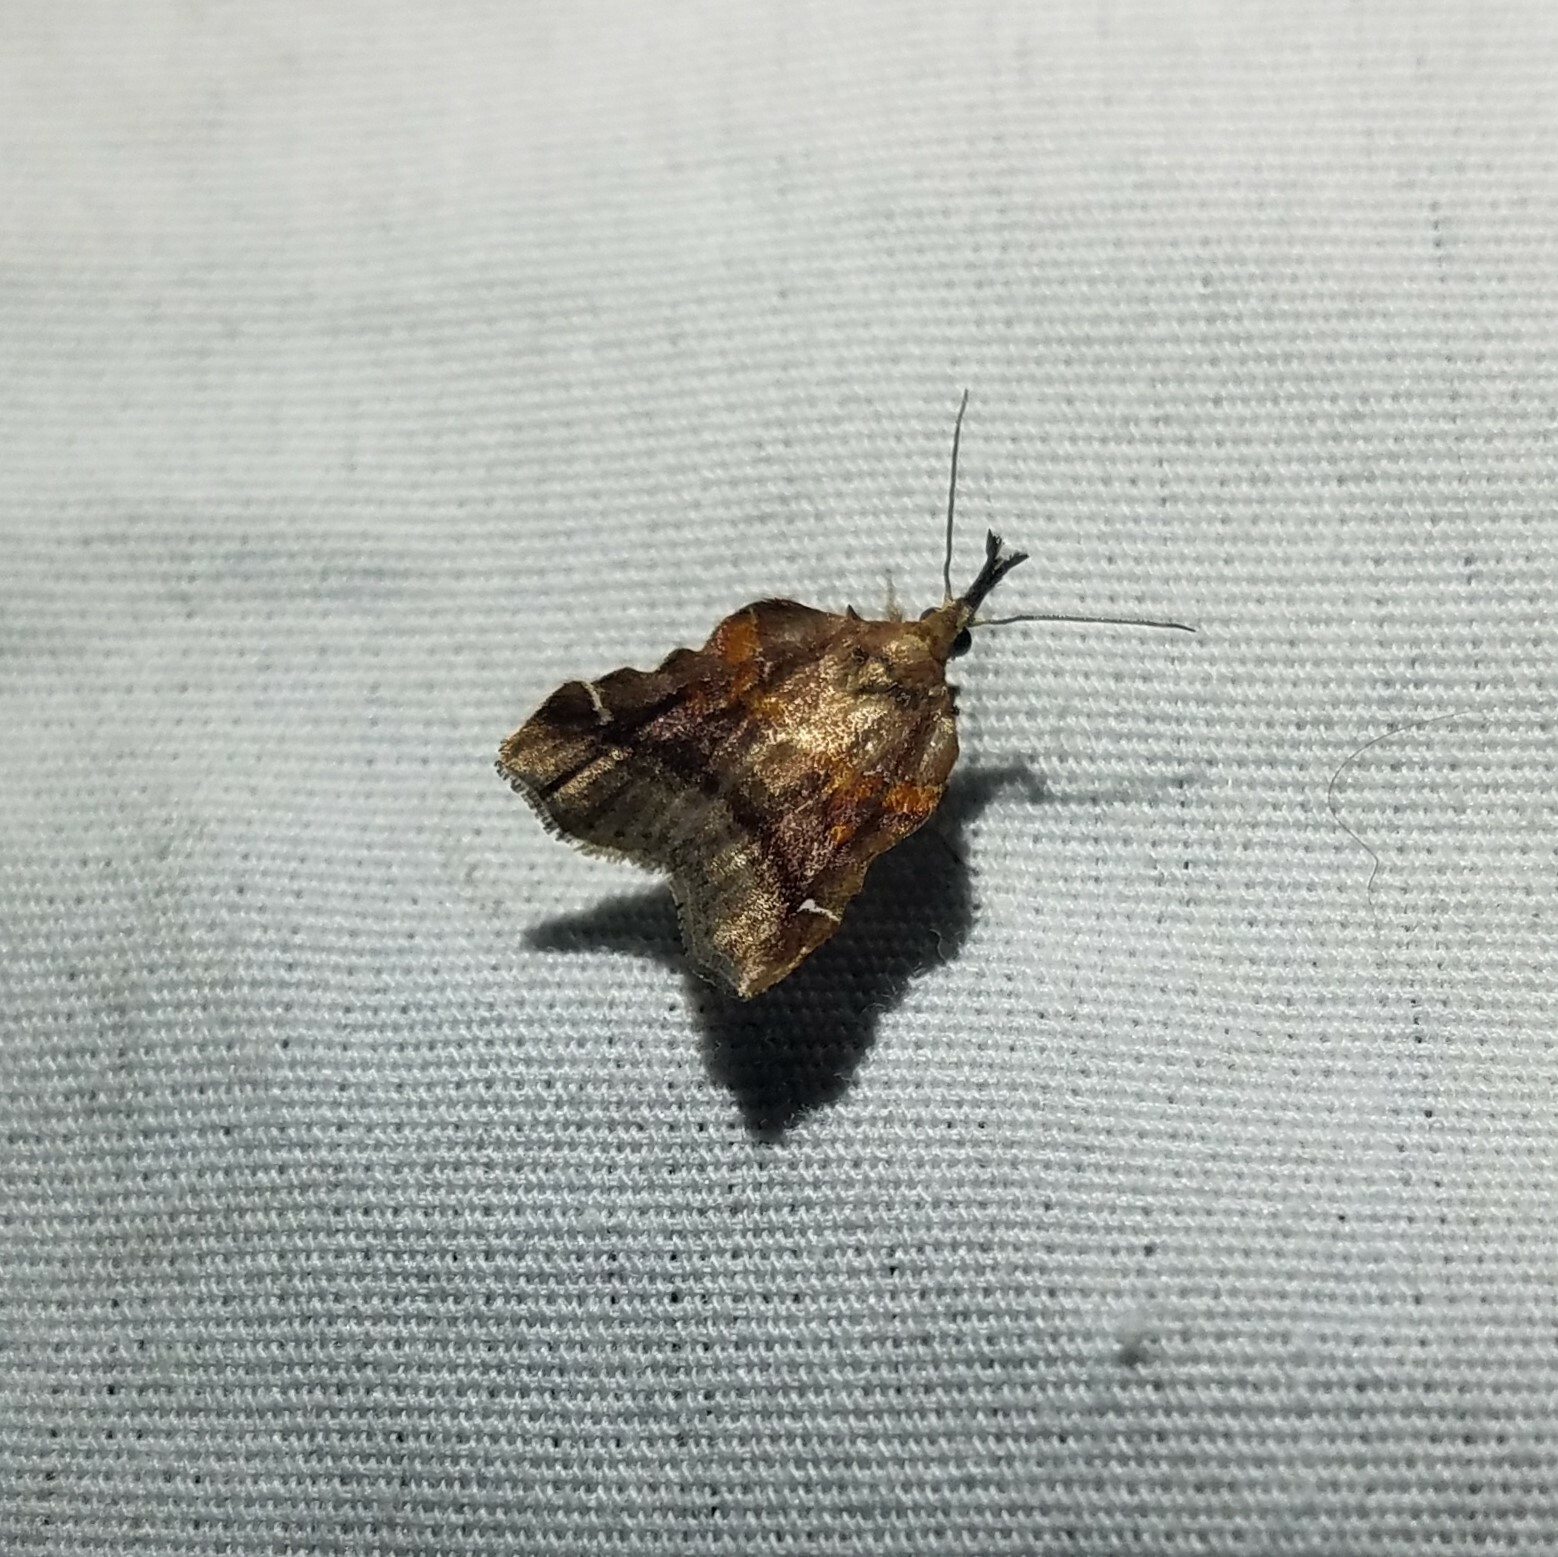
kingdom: Animalia
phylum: Arthropoda
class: Insecta
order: Lepidoptera
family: Pyralidae
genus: Clydonopteron
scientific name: Clydonopteron sacculana
